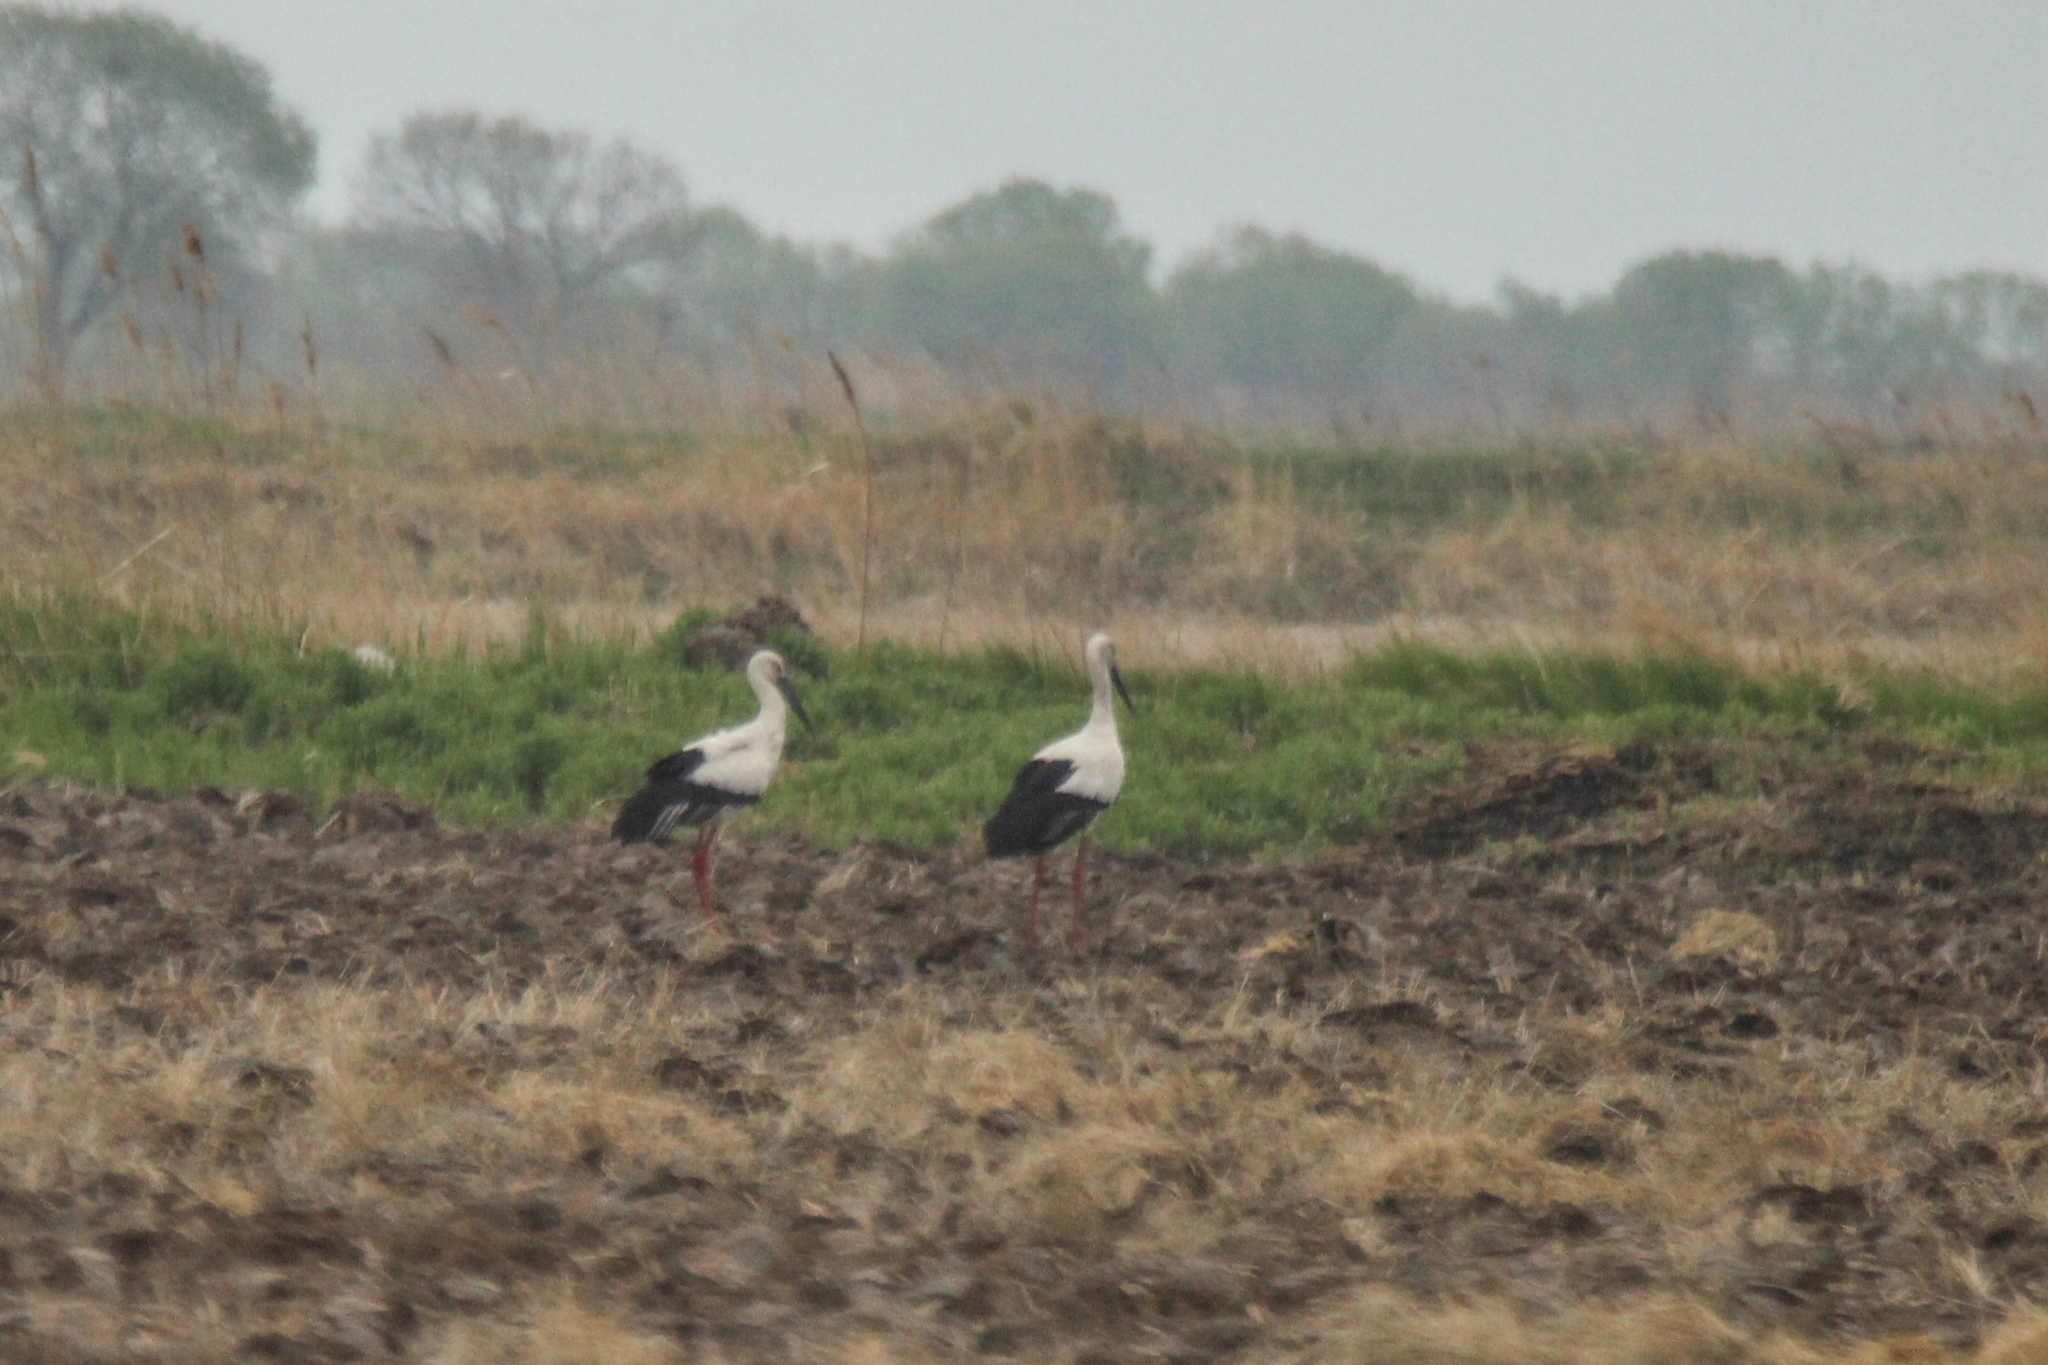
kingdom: Animalia
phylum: Chordata
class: Aves
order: Ciconiiformes
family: Ciconiidae
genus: Ciconia
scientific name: Ciconia boyciana
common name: Oriental stork
